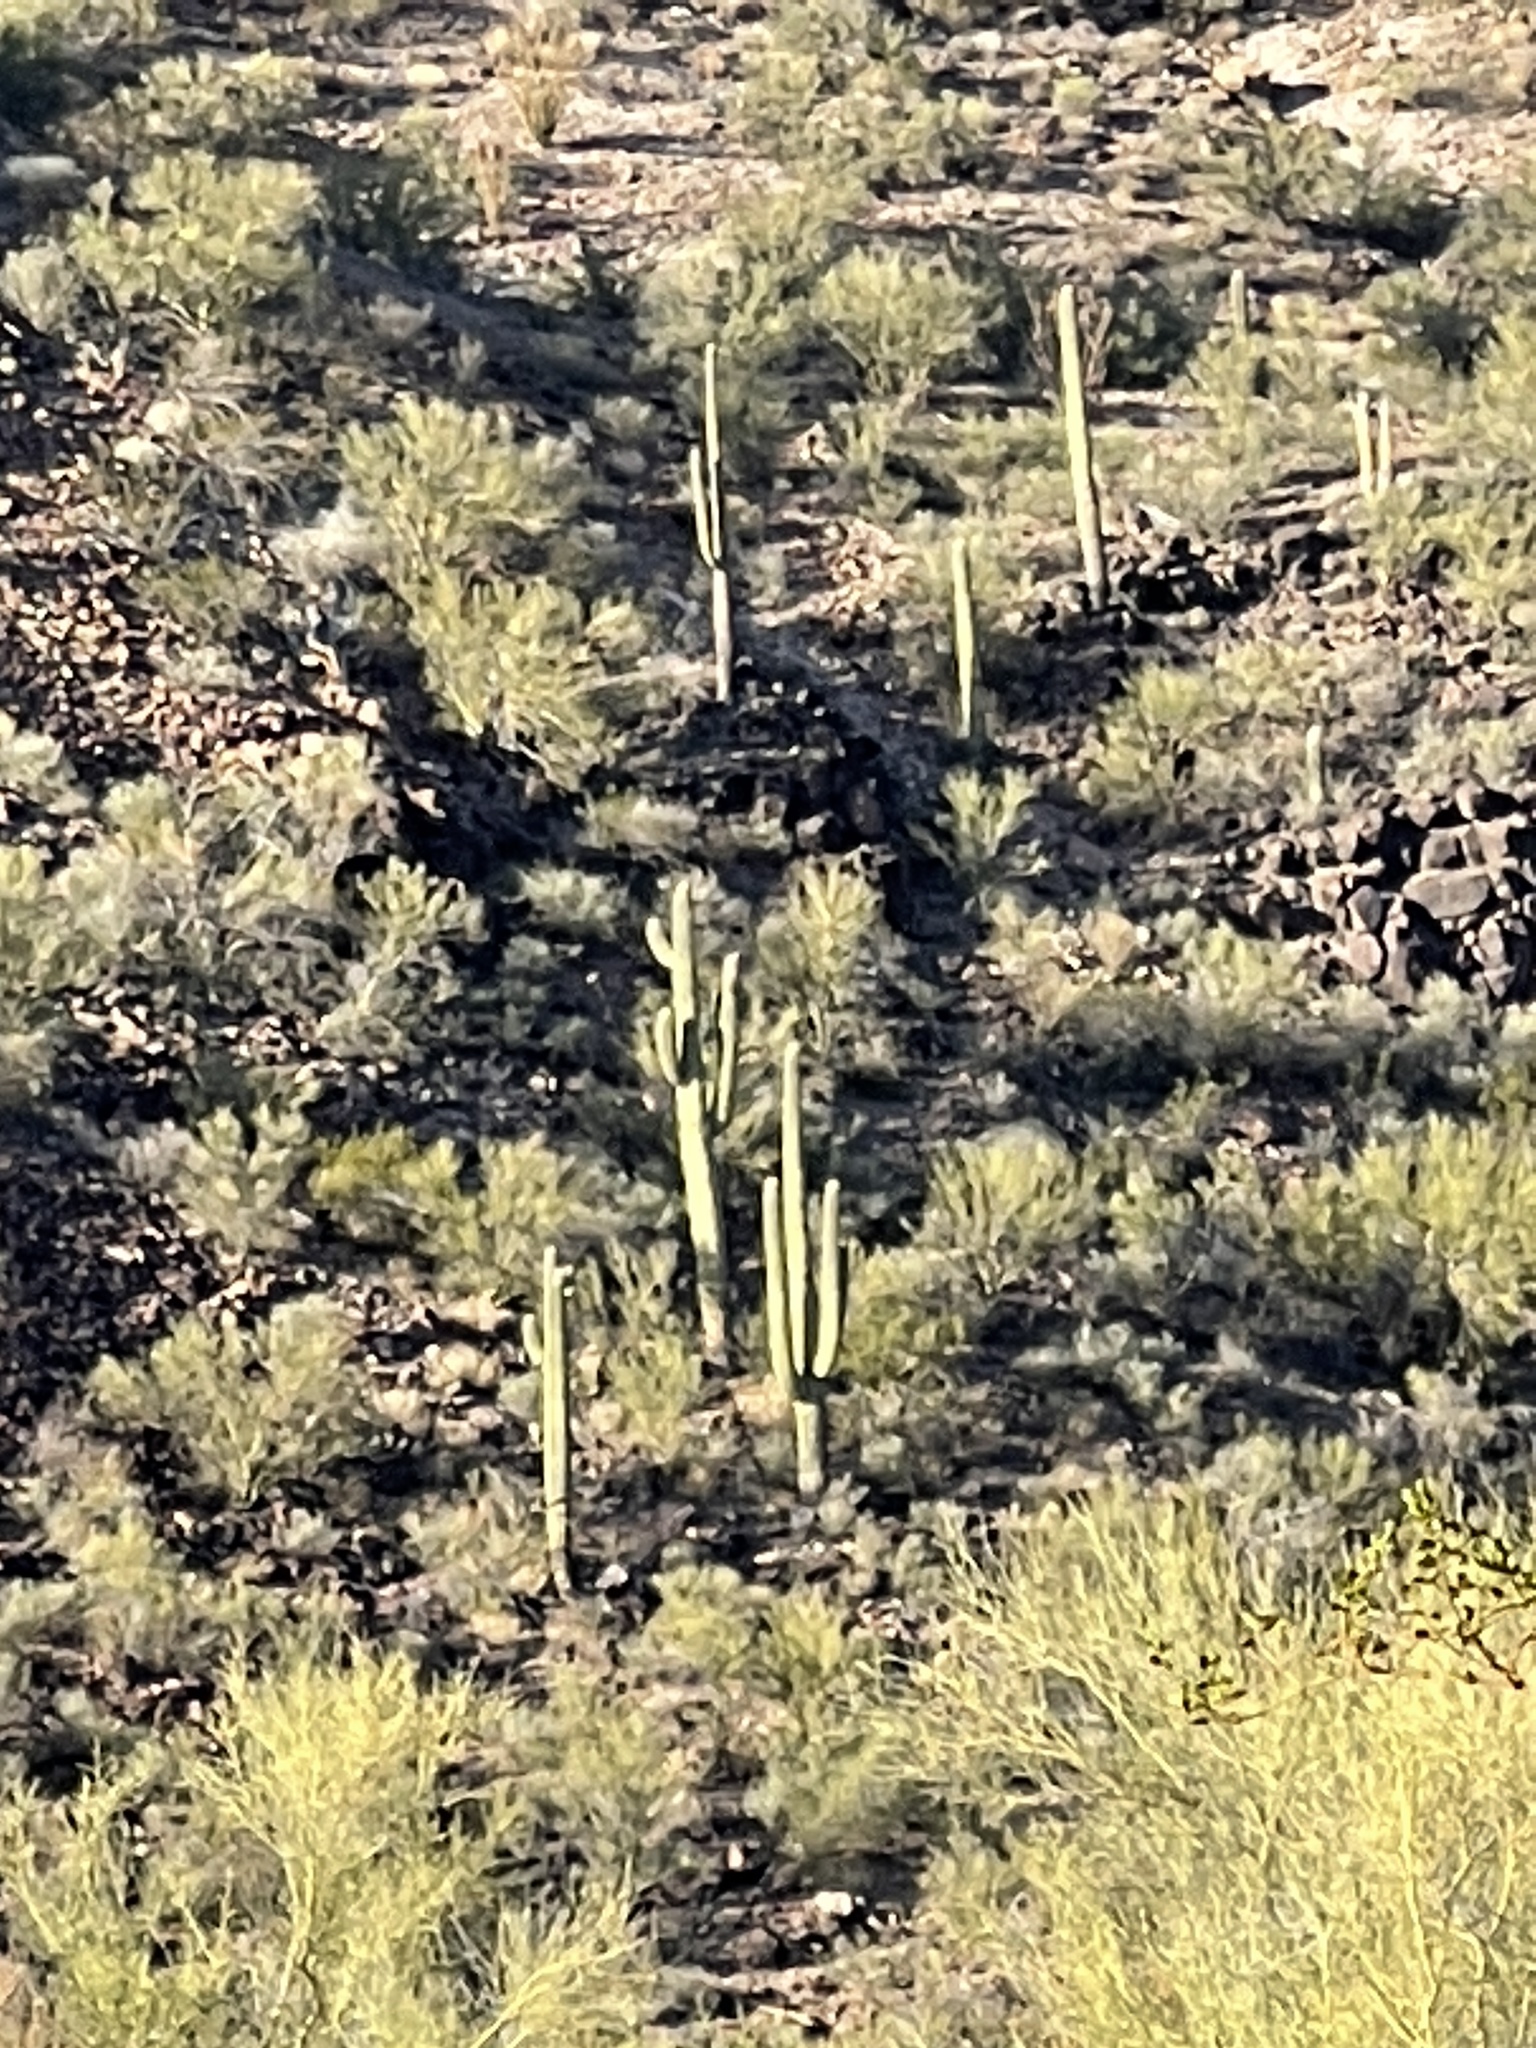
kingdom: Plantae
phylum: Tracheophyta
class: Magnoliopsida
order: Caryophyllales
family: Cactaceae
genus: Carnegiea
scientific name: Carnegiea gigantea
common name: Saguaro
